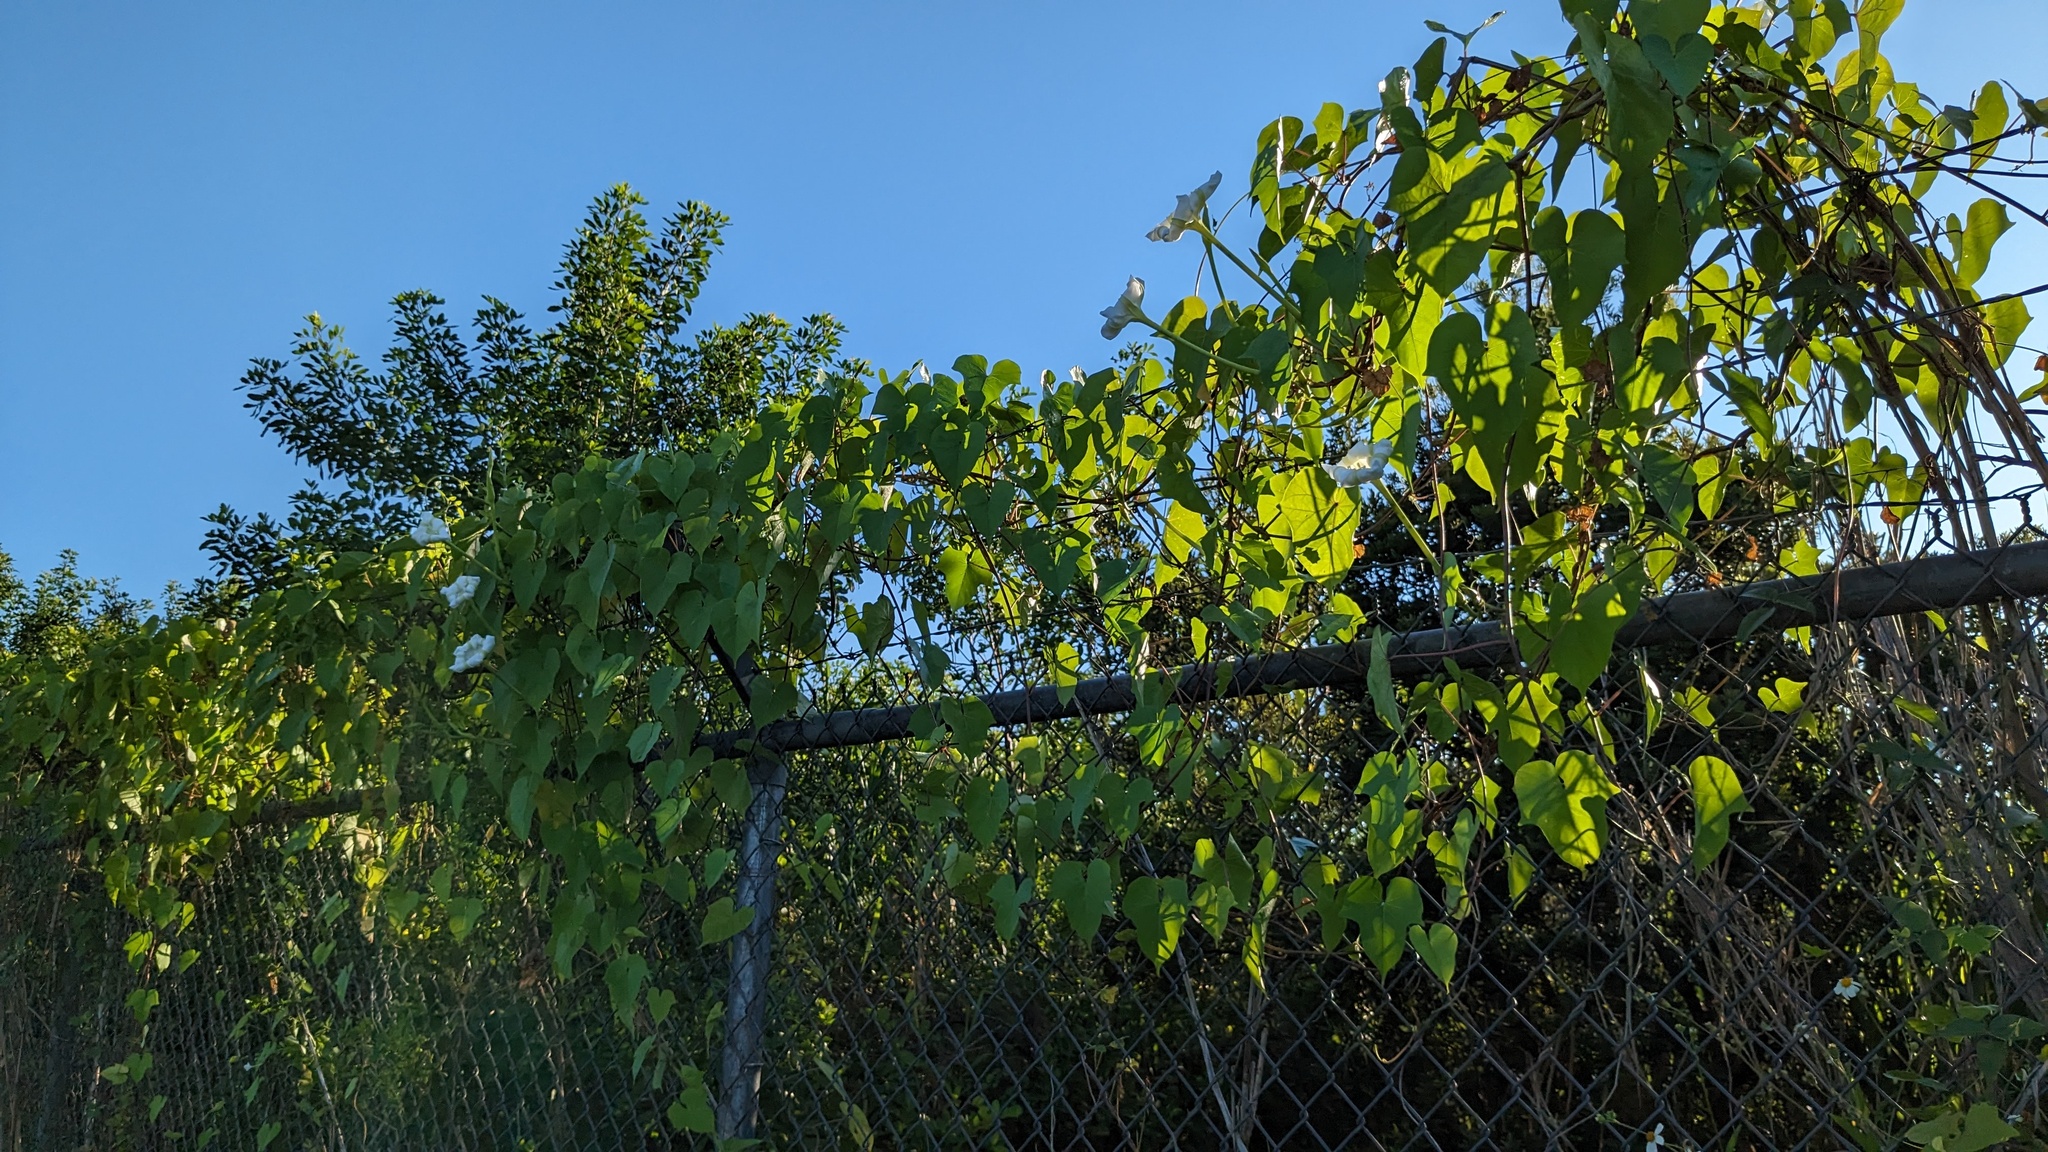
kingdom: Plantae
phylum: Tracheophyta
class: Magnoliopsida
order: Solanales
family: Convolvulaceae
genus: Ipomoea
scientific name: Ipomoea alba
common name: Moonflower
